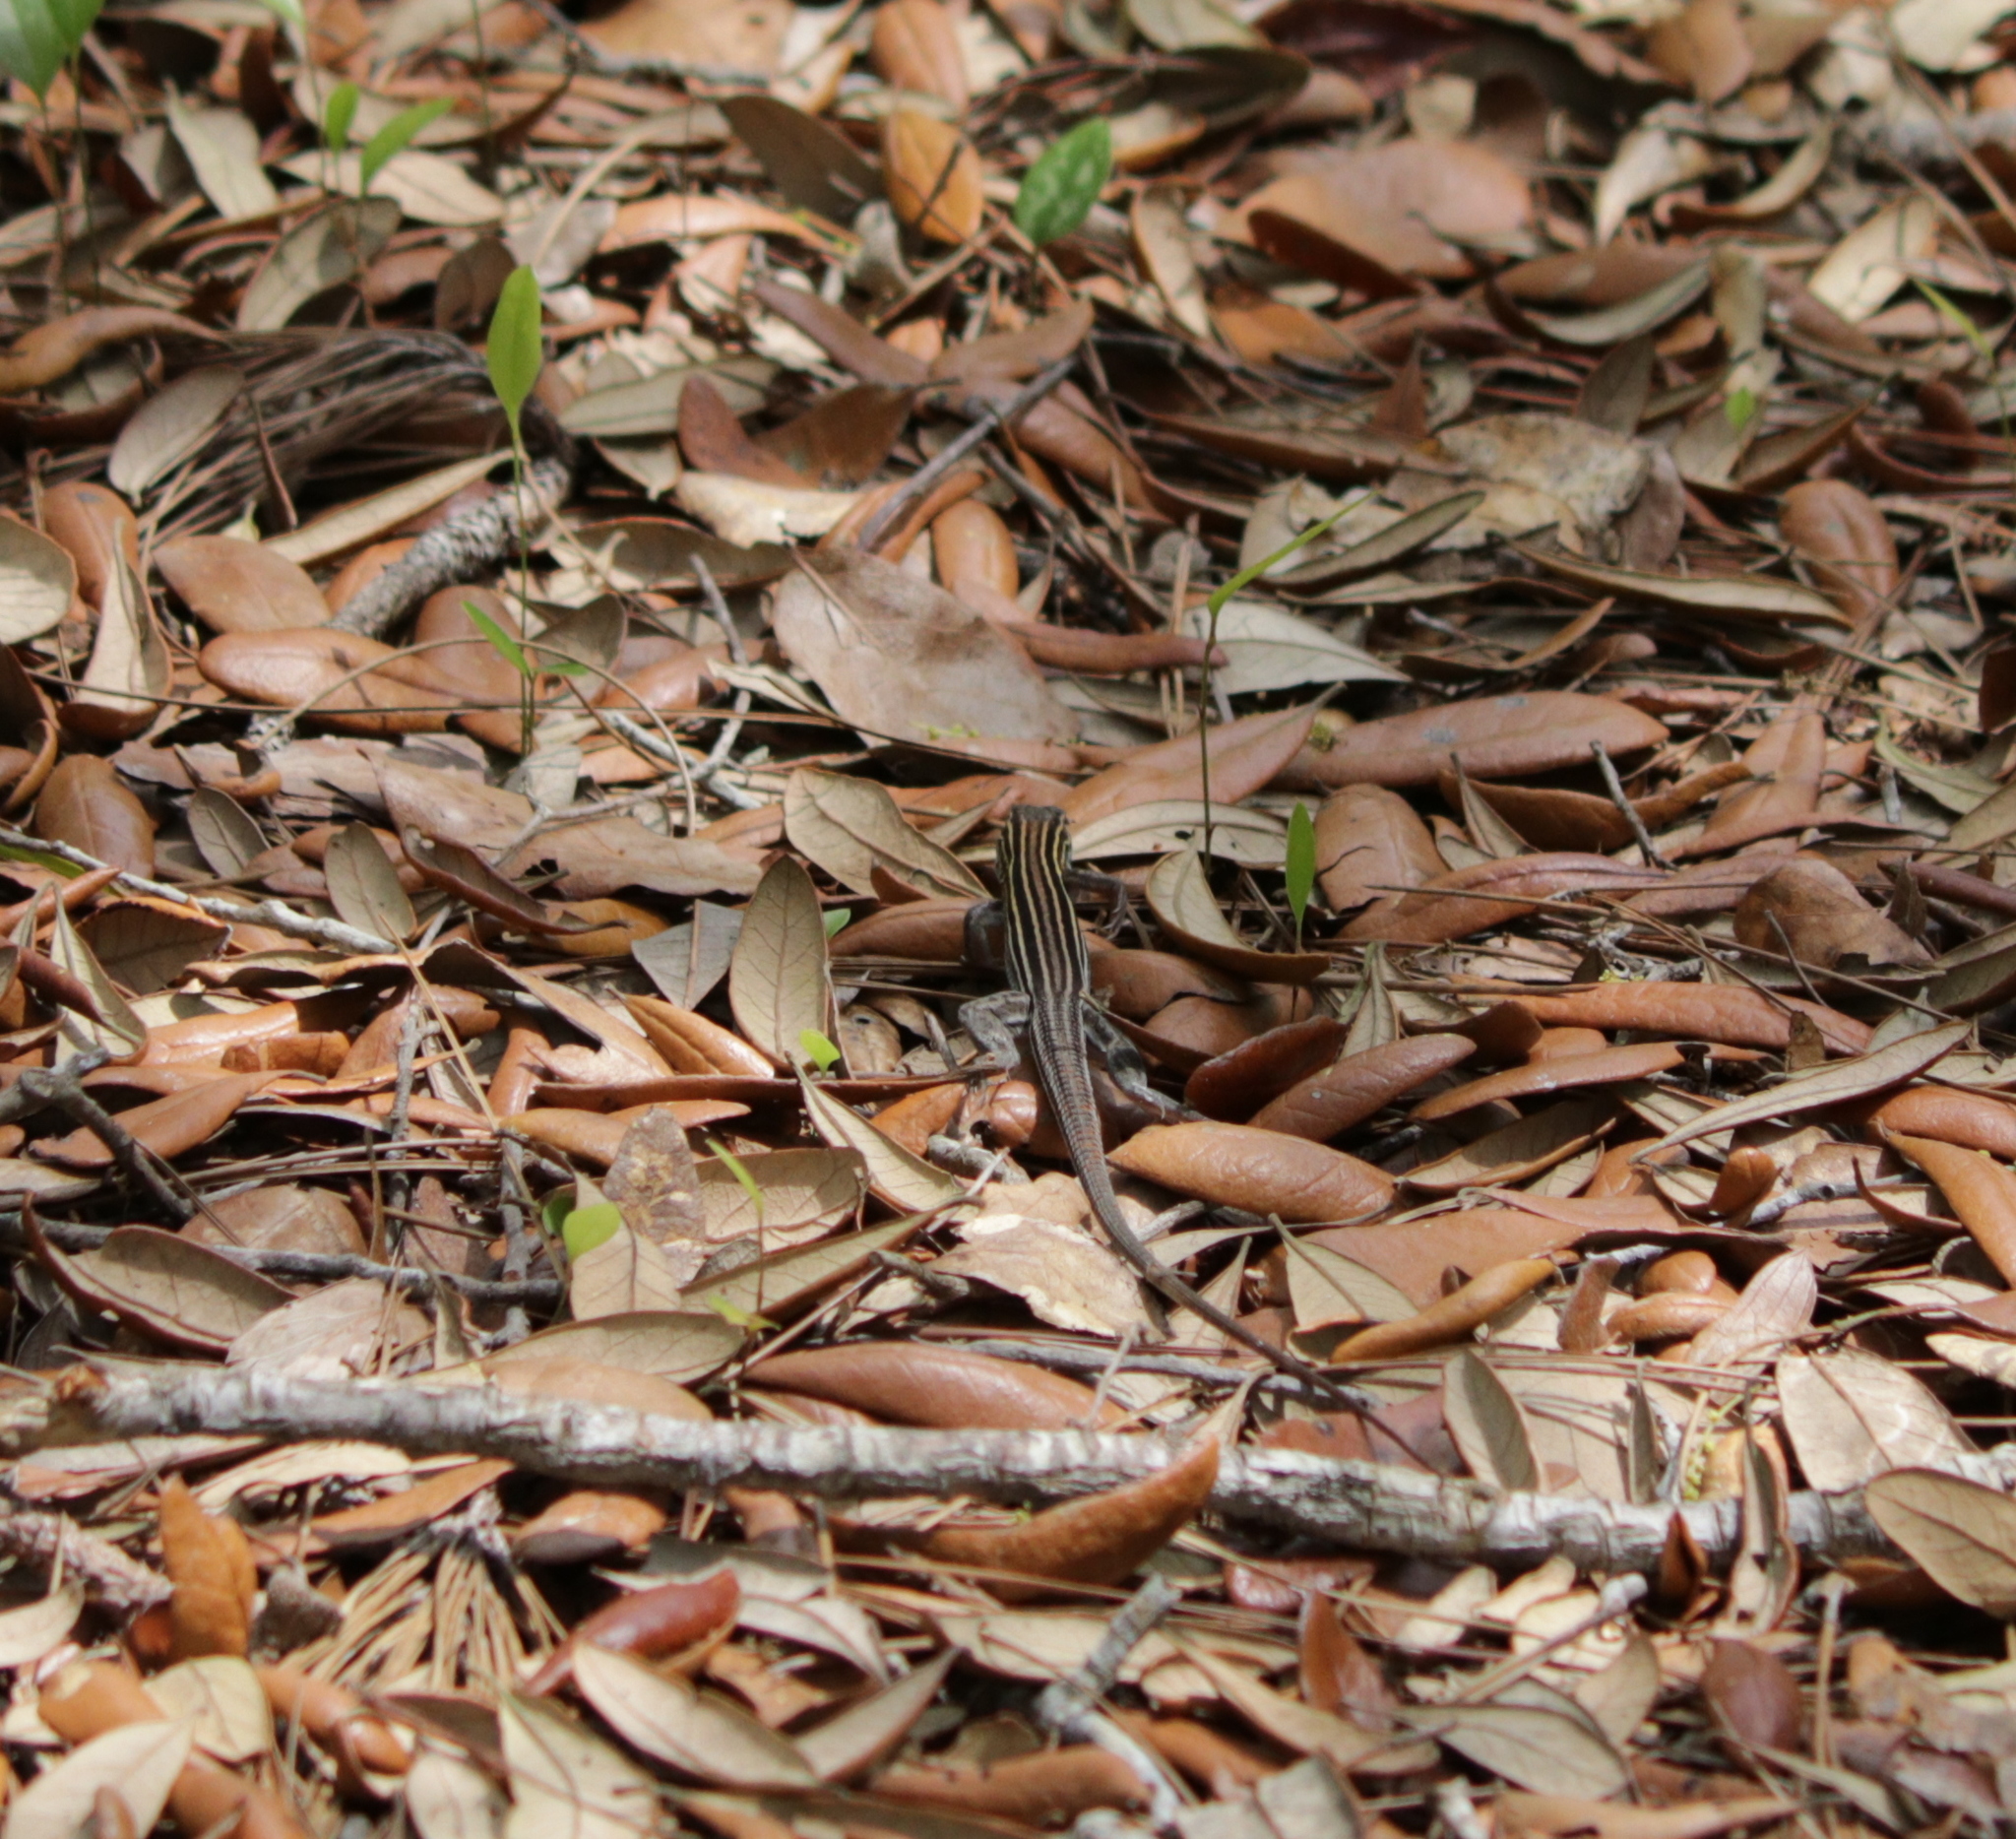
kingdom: Animalia
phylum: Chordata
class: Squamata
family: Teiidae
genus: Aspidoscelis
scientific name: Aspidoscelis sexlineatus
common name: Six-lined racerunner
